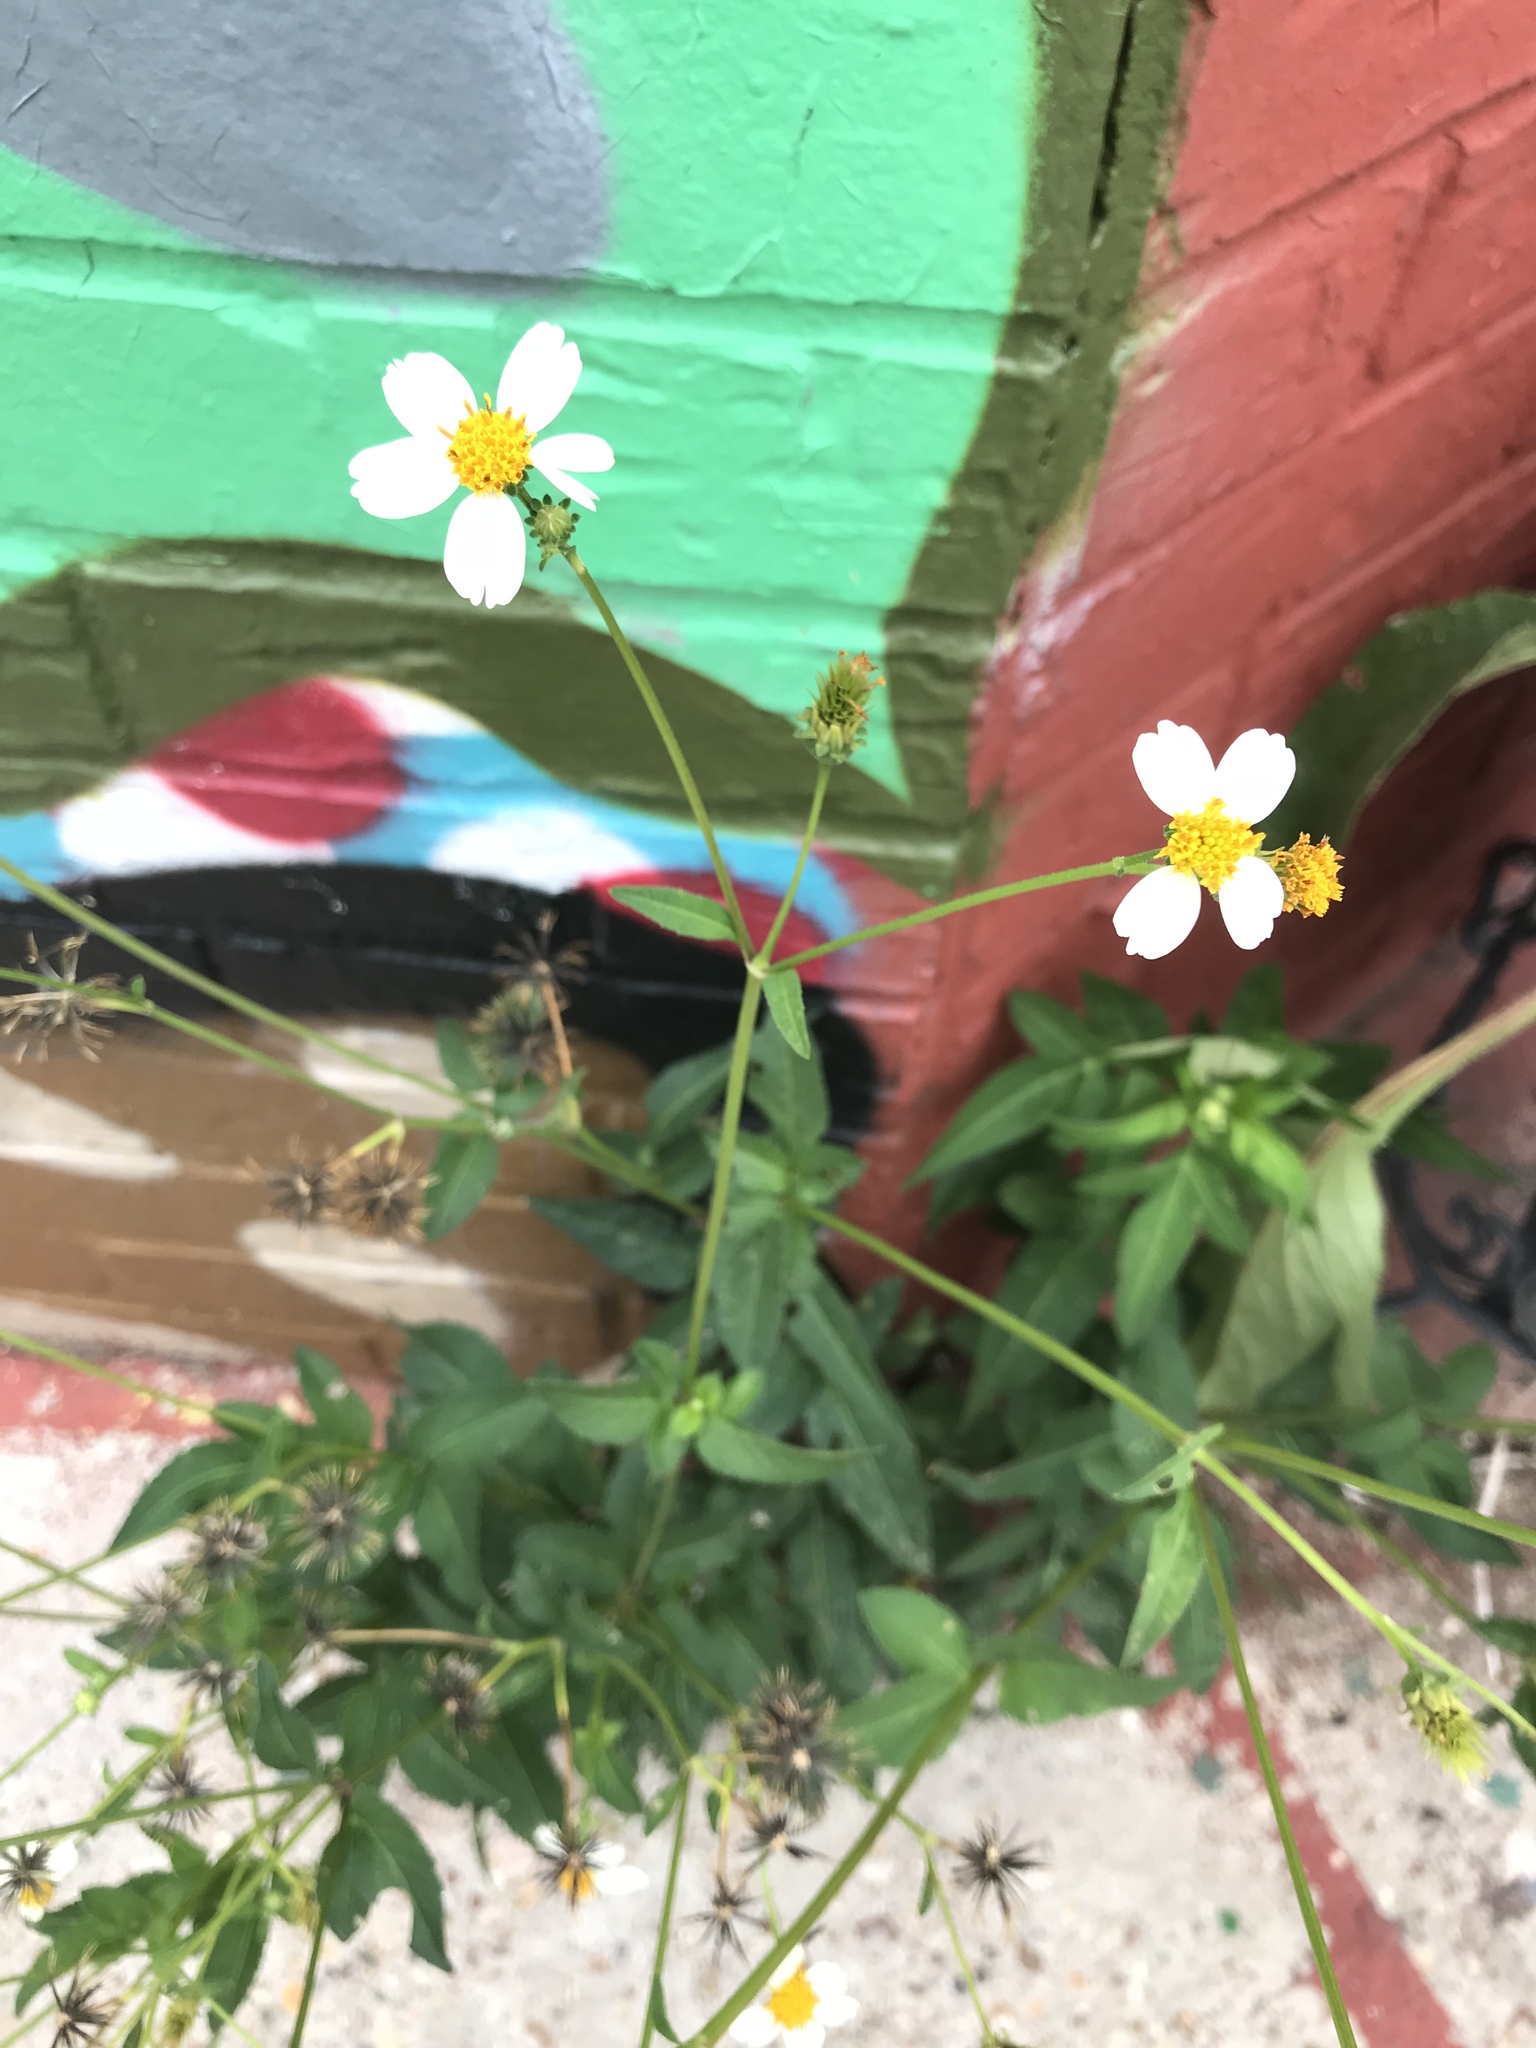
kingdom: Plantae
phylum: Tracheophyta
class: Magnoliopsida
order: Asterales
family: Asteraceae
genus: Bidens
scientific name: Bidens alba
